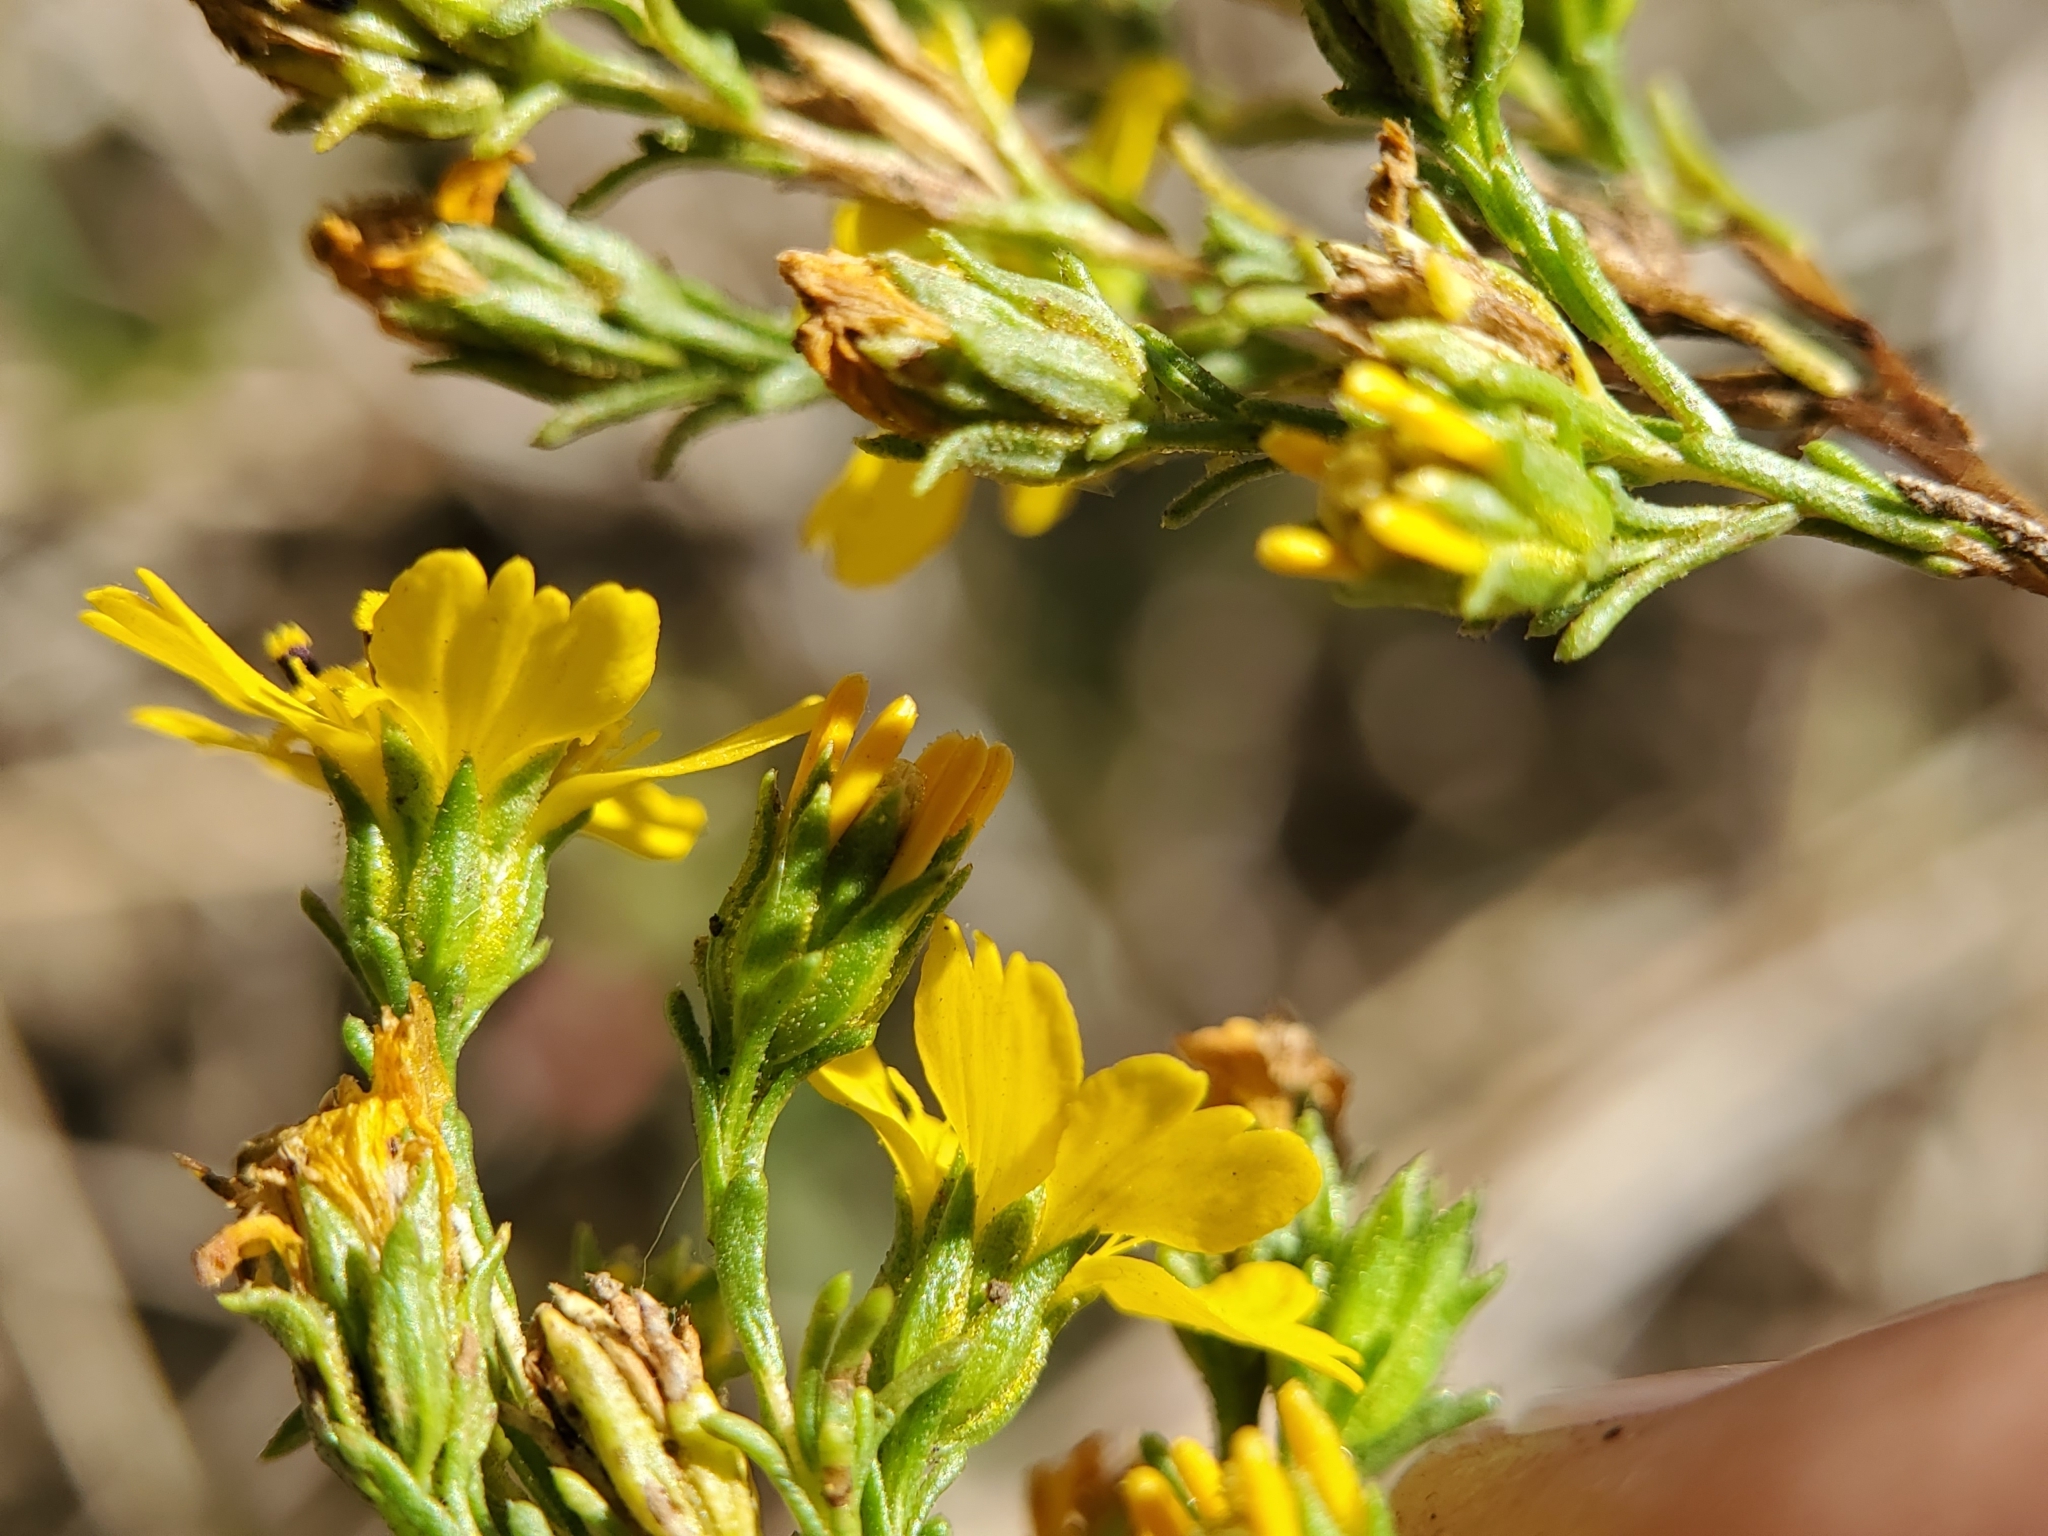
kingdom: Plantae
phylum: Tracheophyta
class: Magnoliopsida
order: Asterales
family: Asteraceae
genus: Deinandra
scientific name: Deinandra fasciculata
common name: Clustered tarweed
